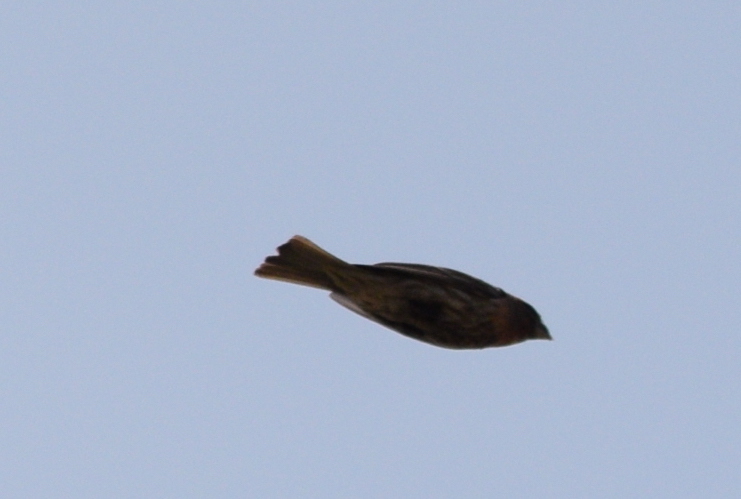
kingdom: Animalia
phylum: Chordata
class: Aves
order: Passeriformes
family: Fringillidae
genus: Haemorhous
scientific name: Haemorhous mexicanus
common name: House finch
